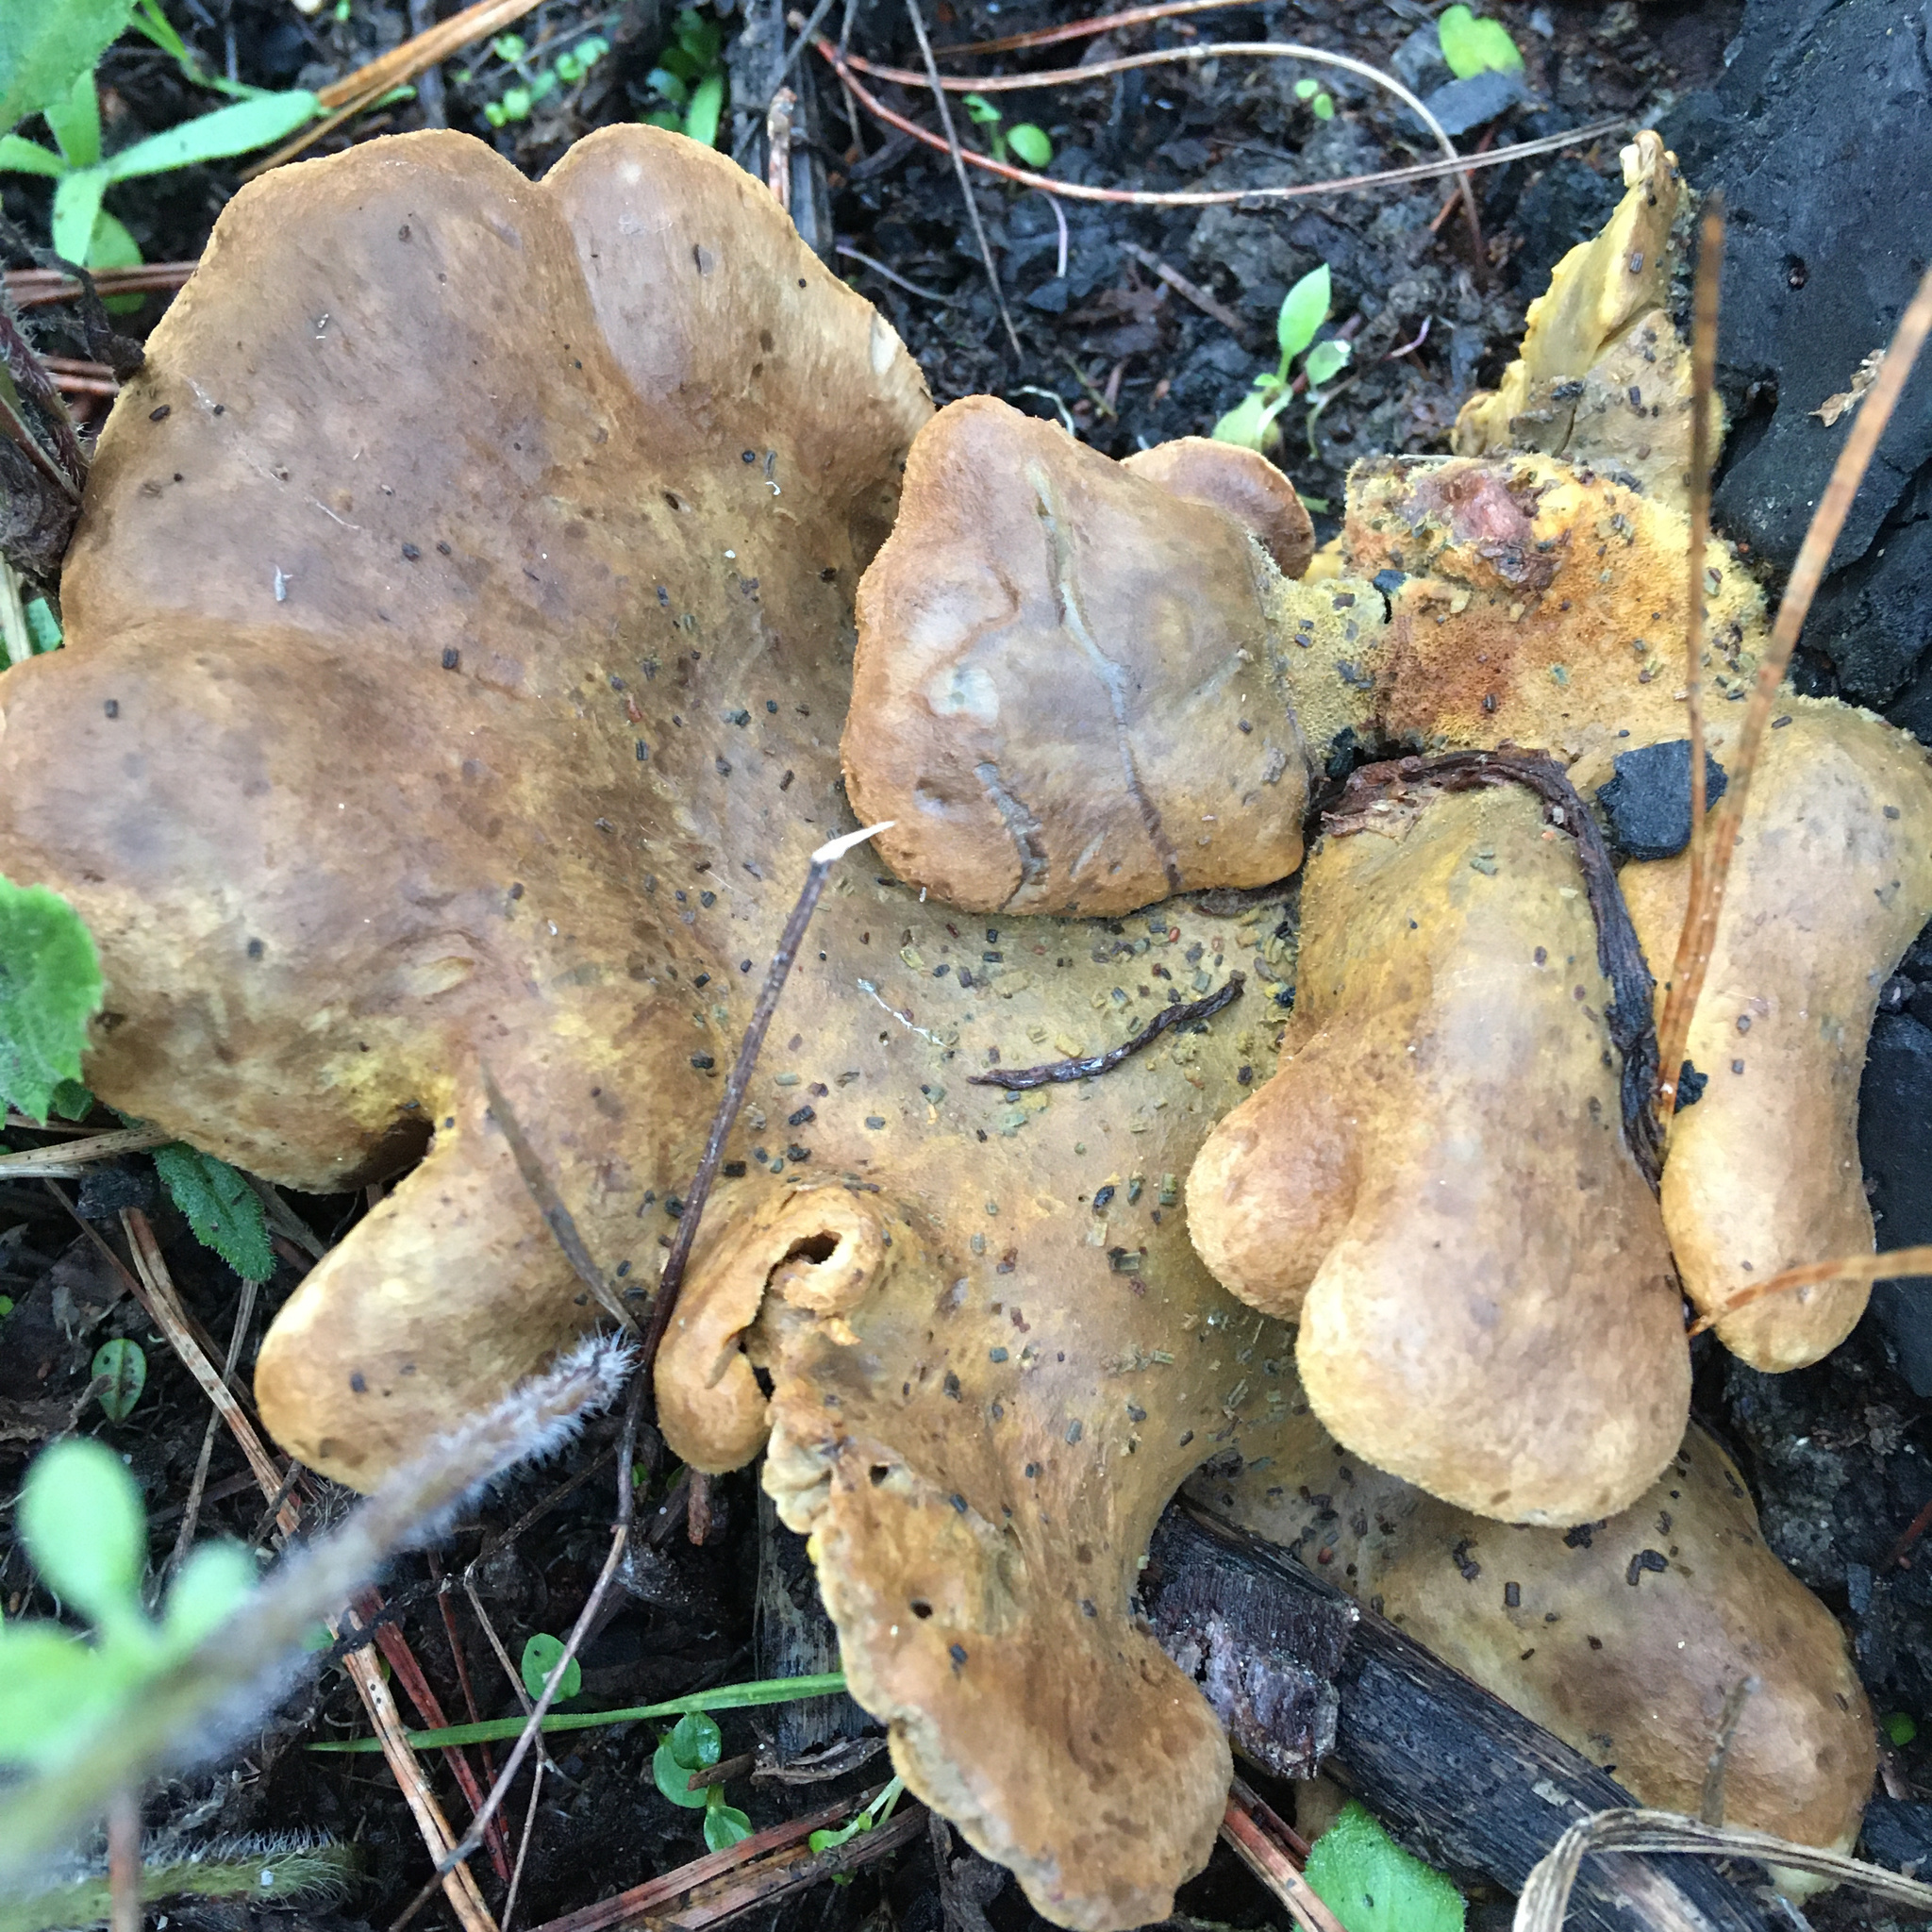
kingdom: Fungi
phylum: Basidiomycota
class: Agaricomycetes
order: Boletales
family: Tapinellaceae
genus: Tapinella
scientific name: Tapinella panuoides
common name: Oyster rollrim
